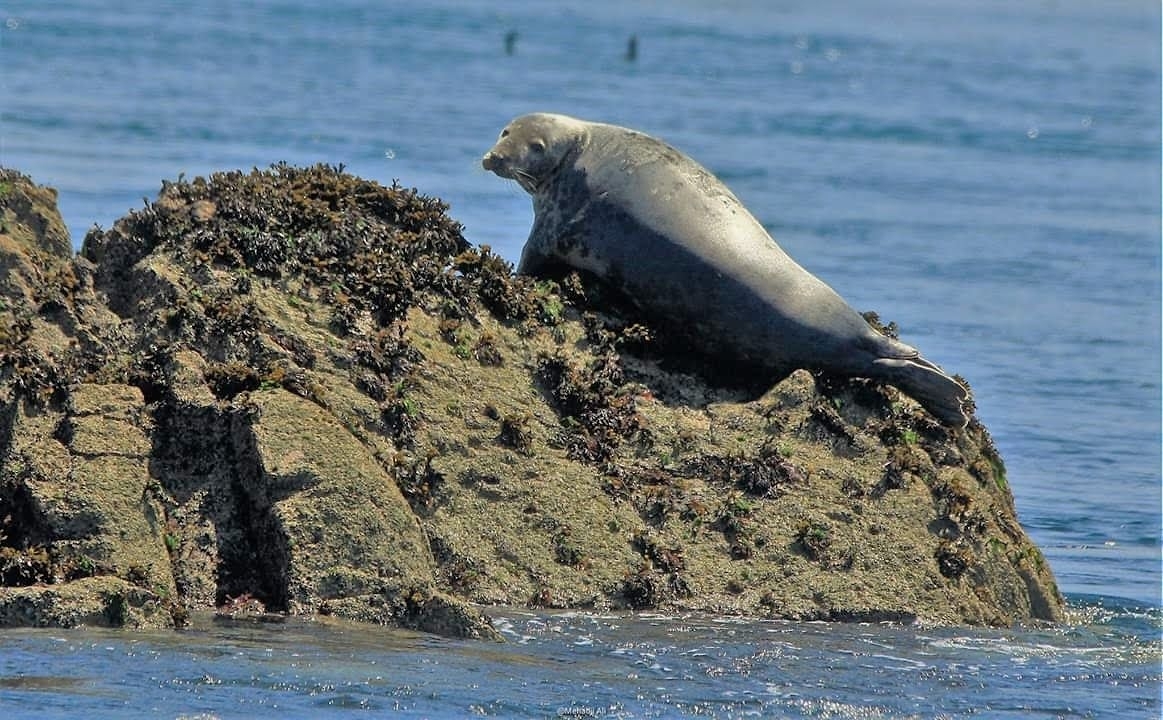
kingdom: Animalia
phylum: Chordata
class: Mammalia
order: Carnivora
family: Phocidae
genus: Halichoerus
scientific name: Halichoerus grypus
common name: Grey seal
